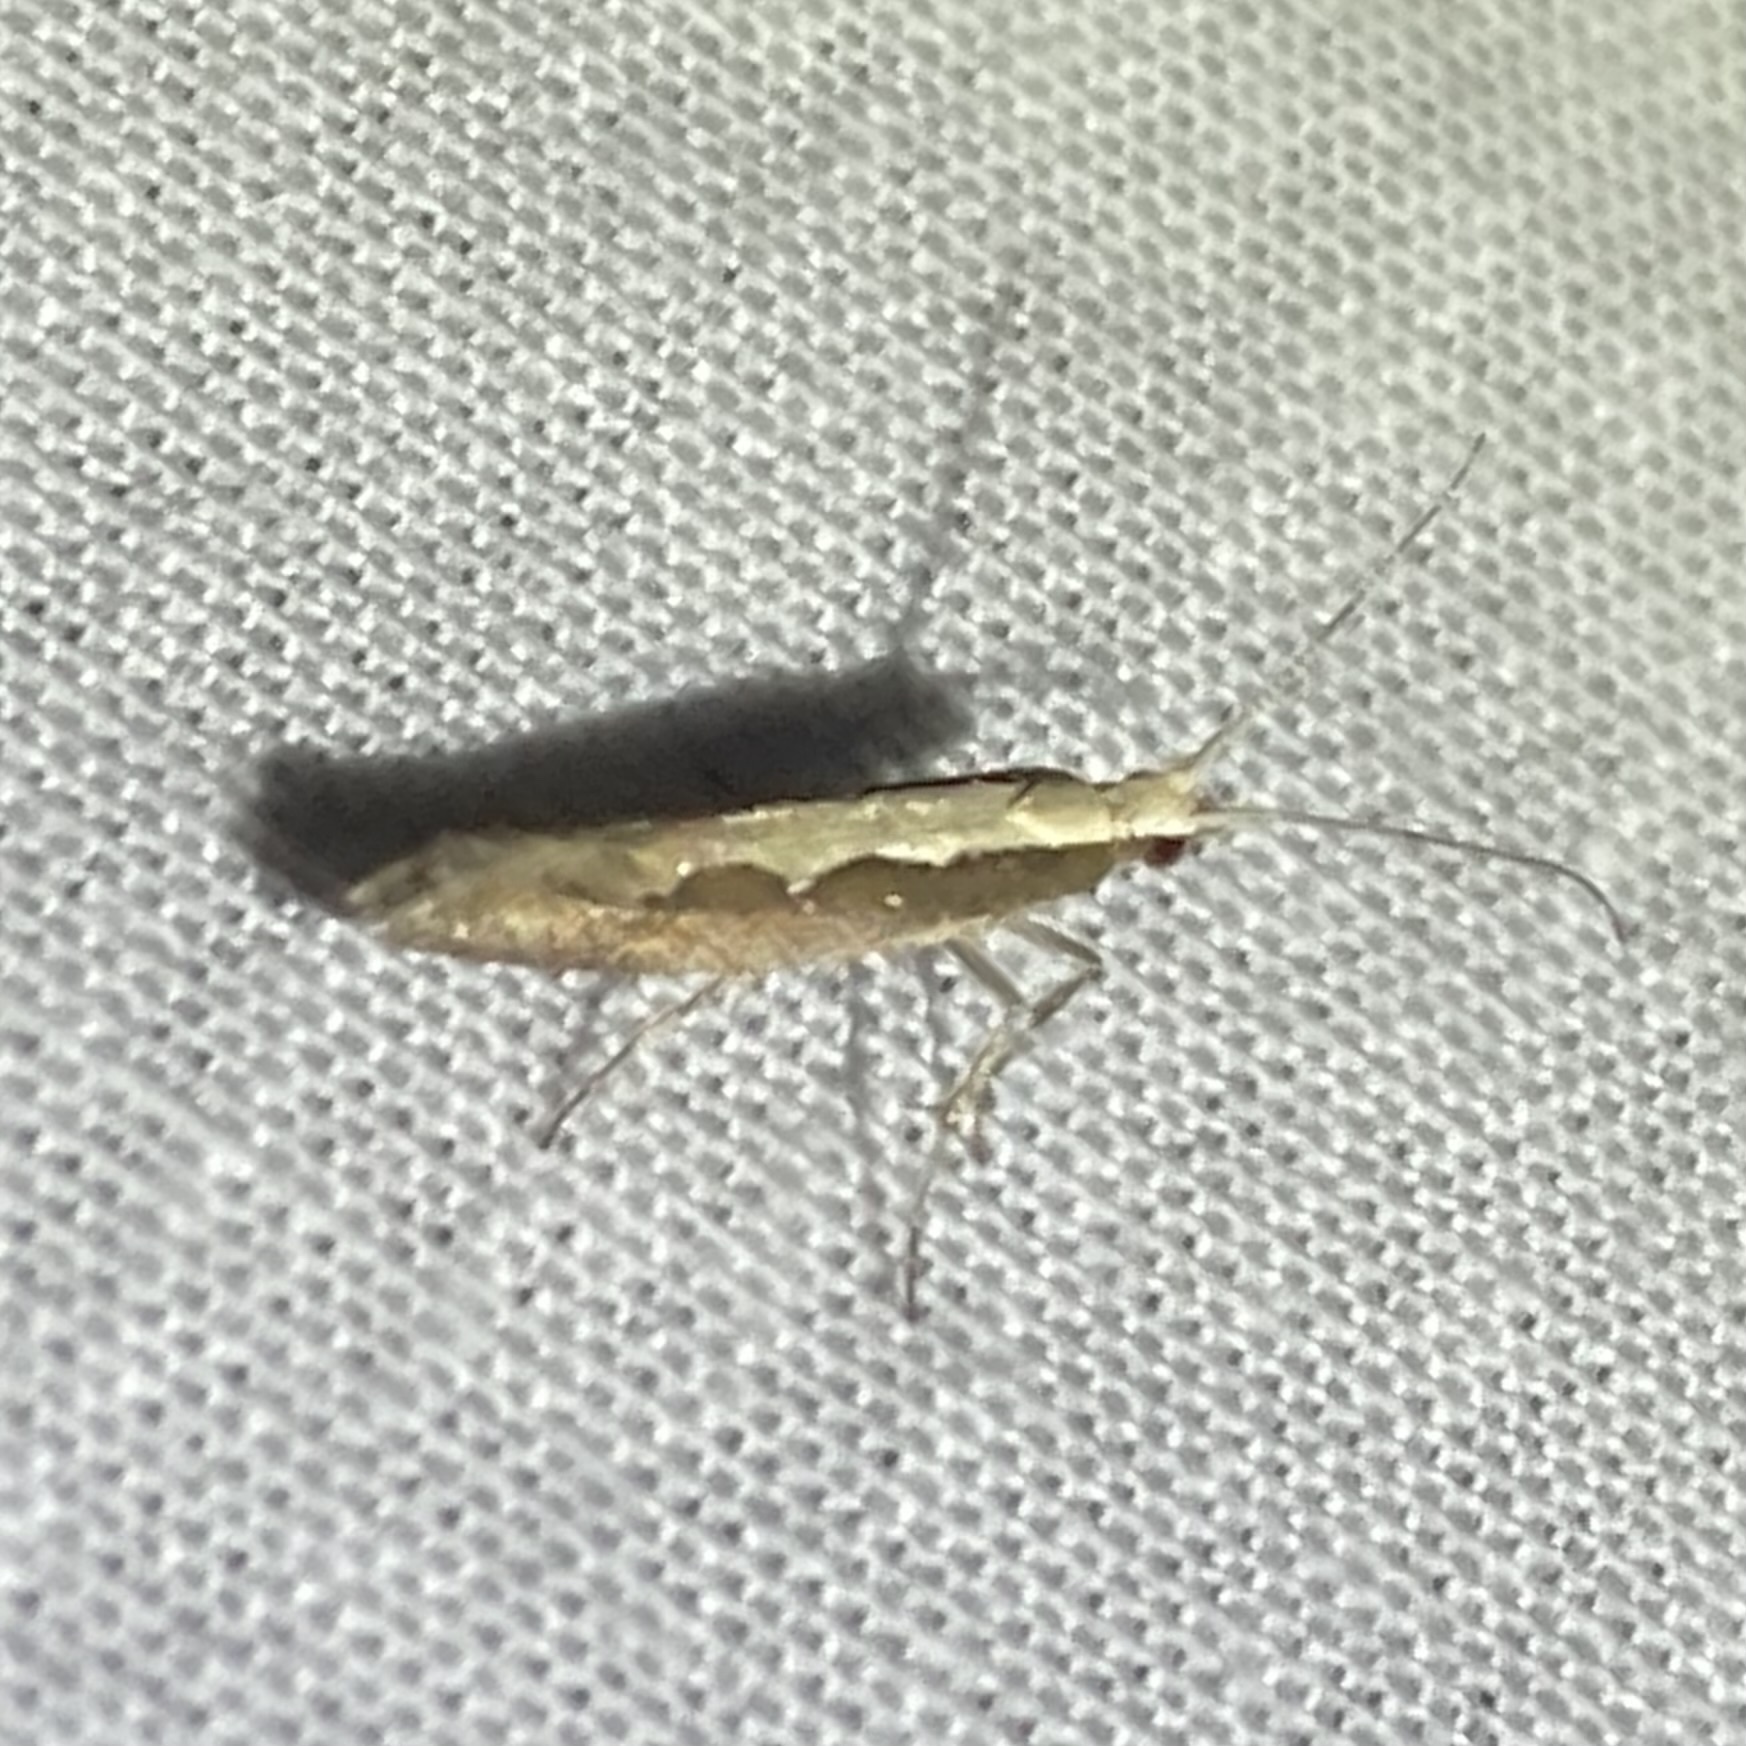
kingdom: Animalia
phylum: Arthropoda
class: Insecta
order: Lepidoptera
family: Plutellidae
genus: Plutella
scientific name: Plutella xylostella
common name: Diamond-back moth
